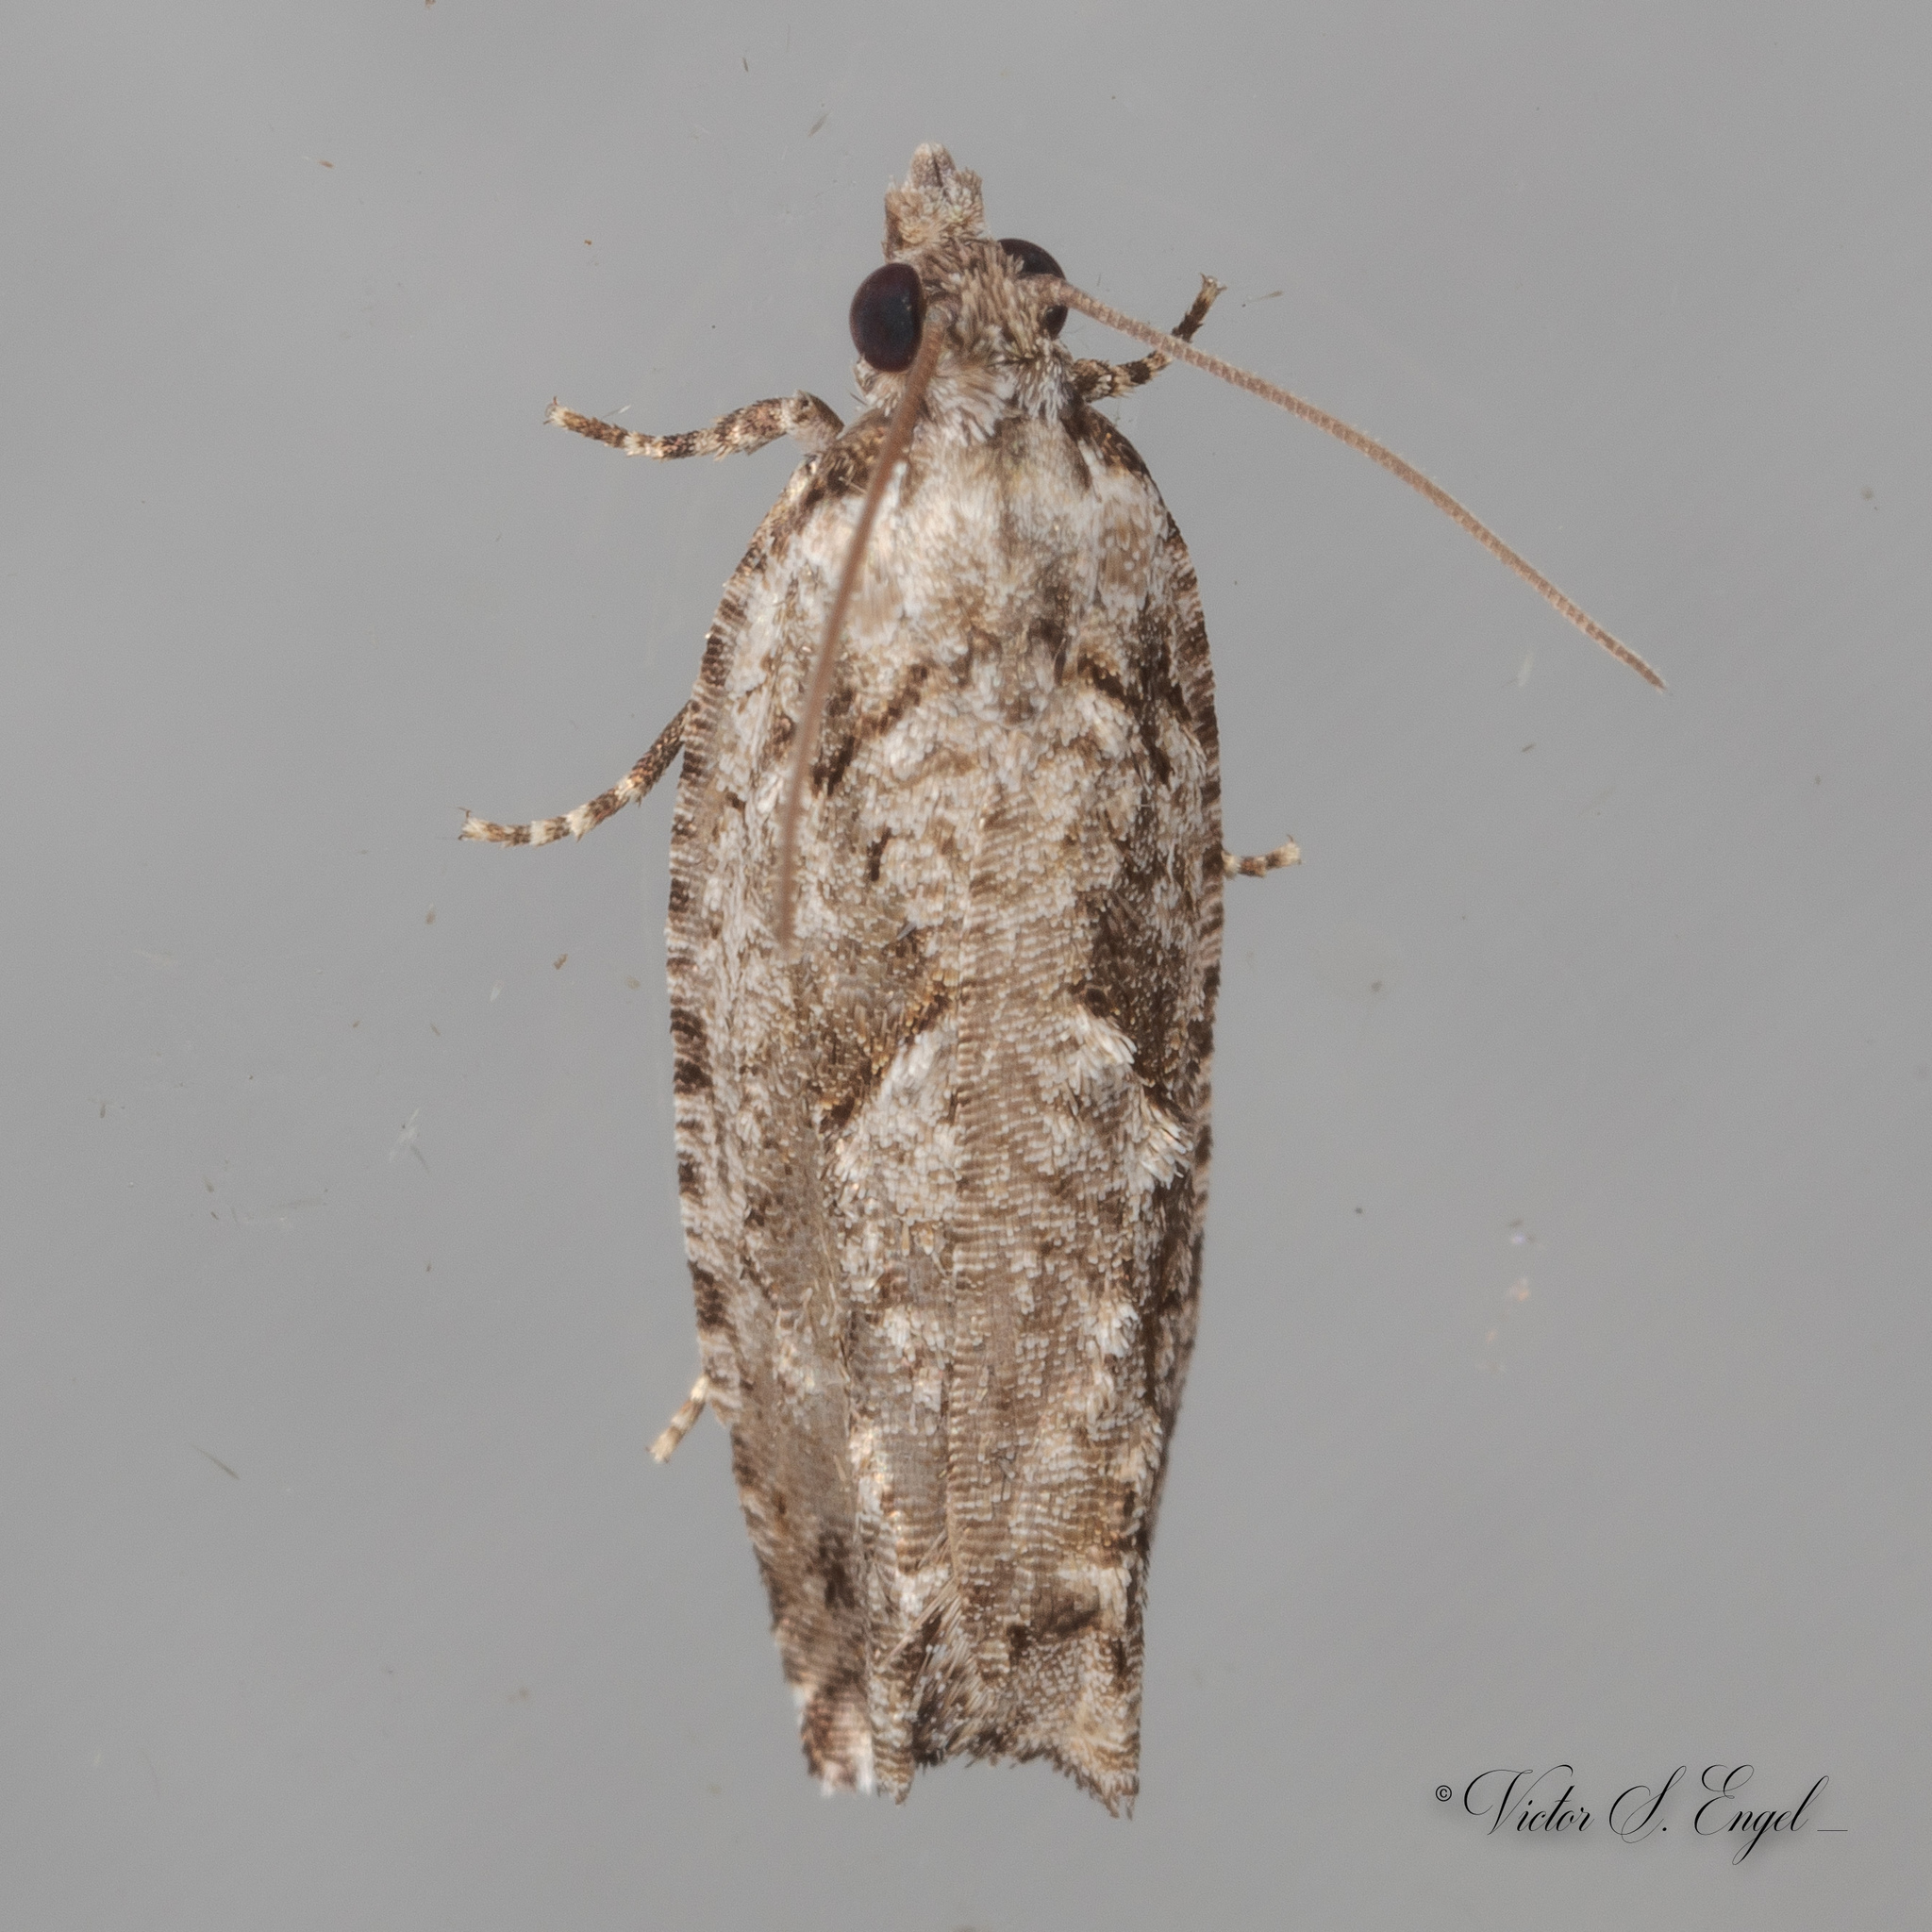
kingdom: Animalia
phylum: Arthropoda
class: Insecta
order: Lepidoptera
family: Tortricidae
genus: Gretchena
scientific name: Gretchena bolliana
